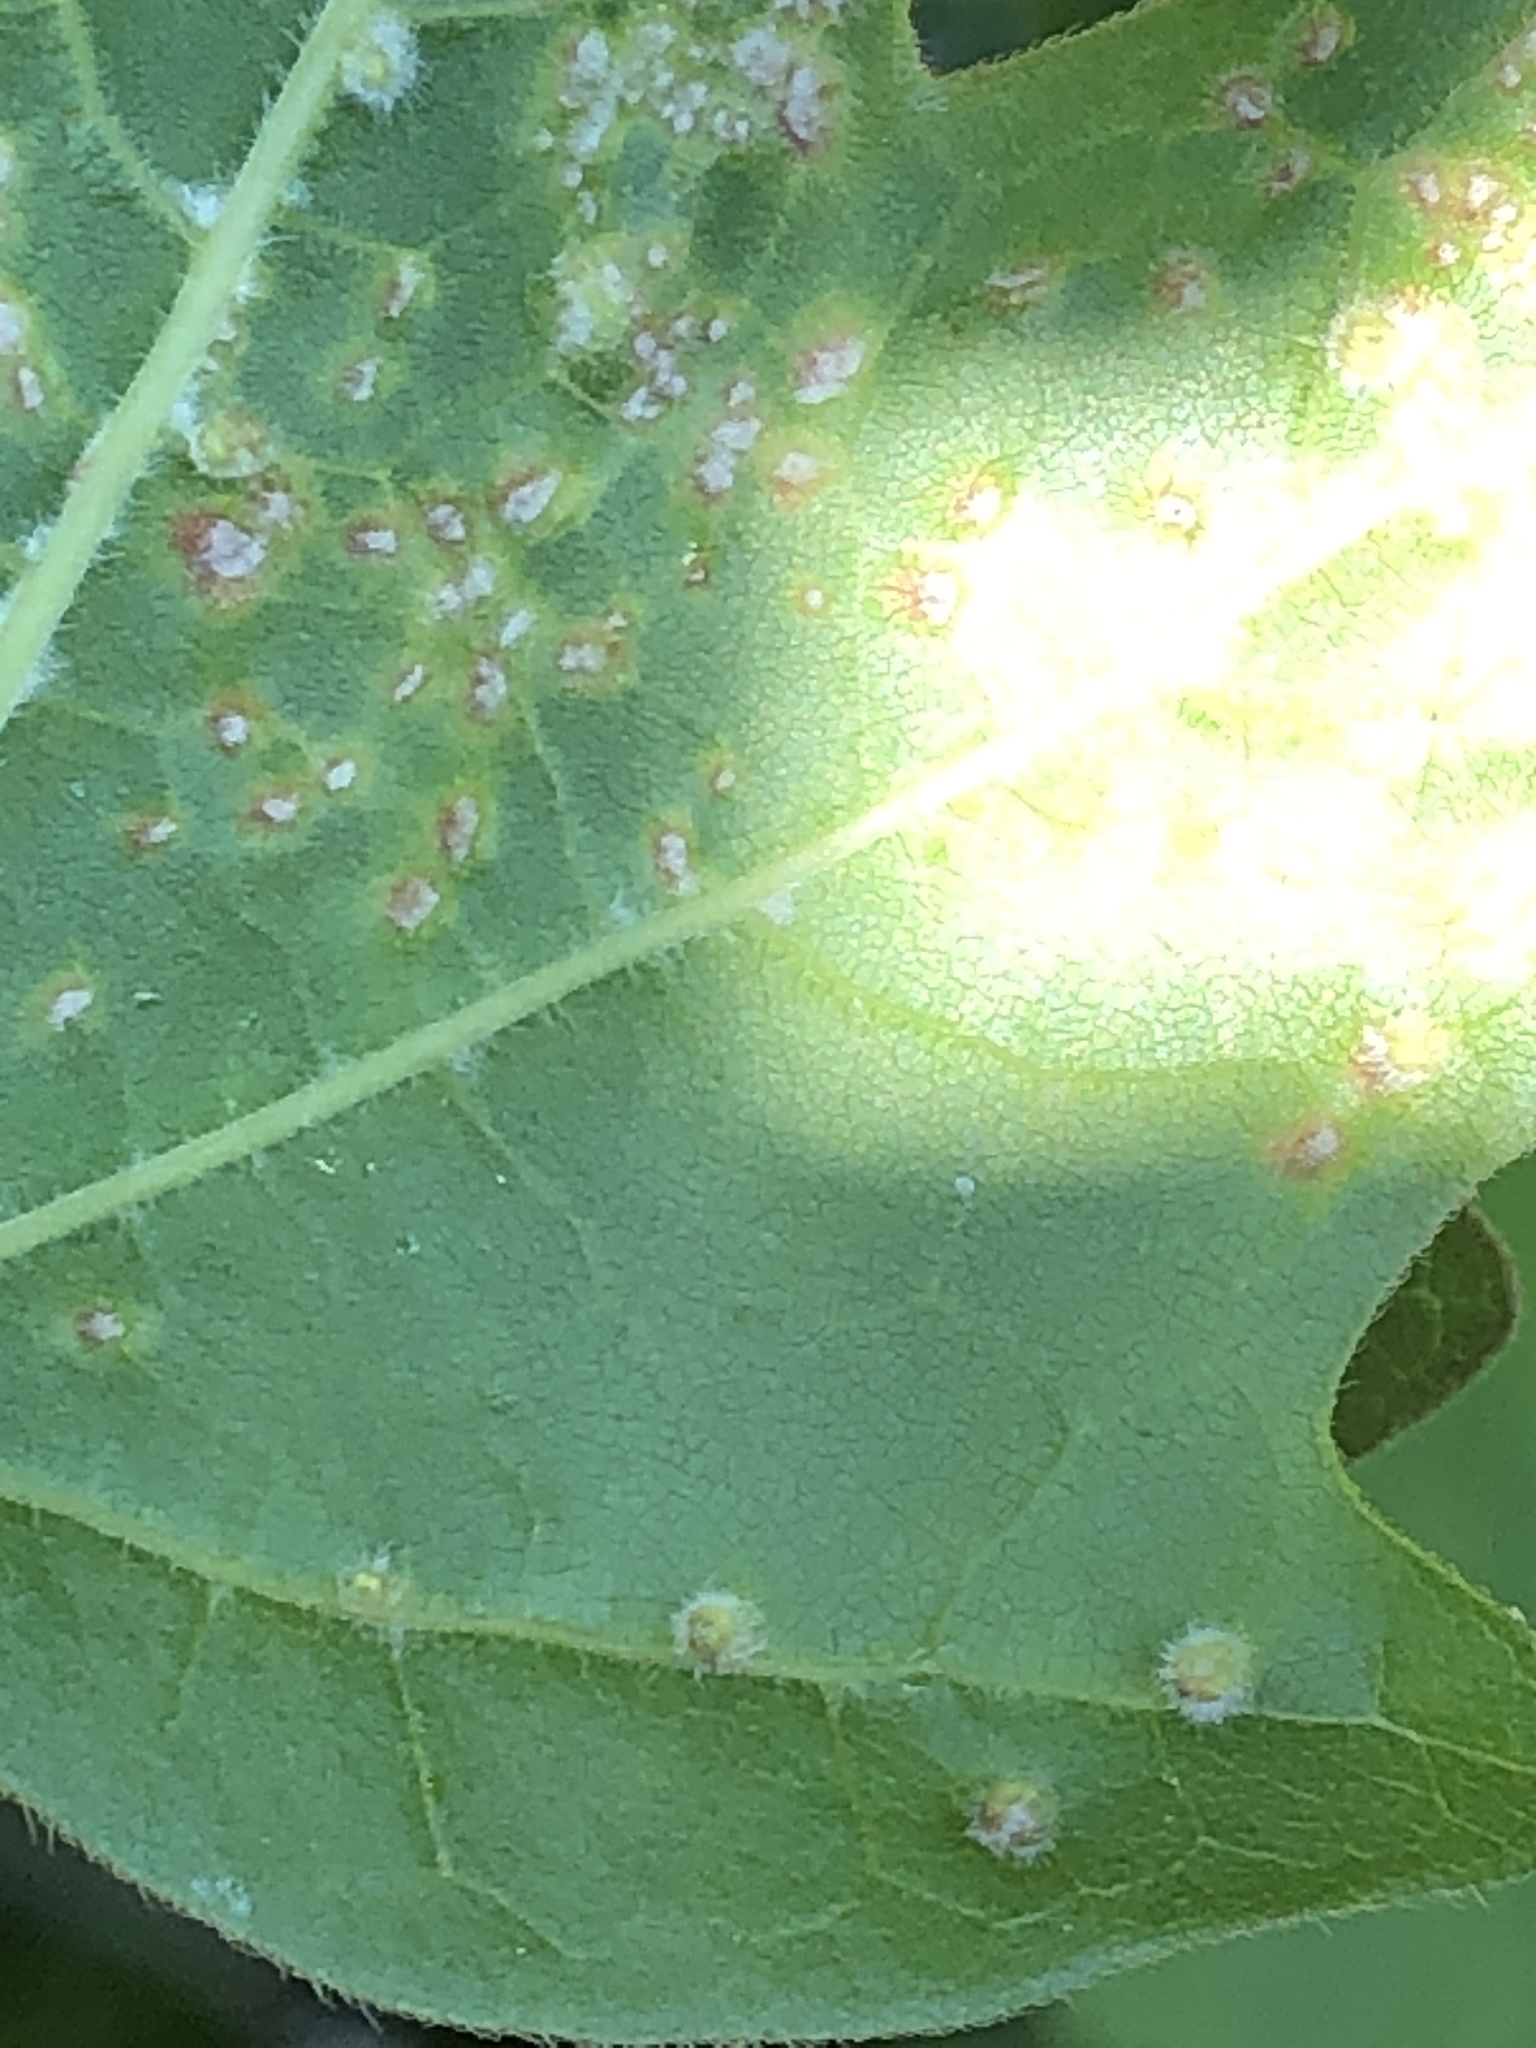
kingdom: Animalia
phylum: Arthropoda
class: Arachnida
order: Trombidiformes
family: Eriophyidae
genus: Aceria
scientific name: Aceria myriadeum
